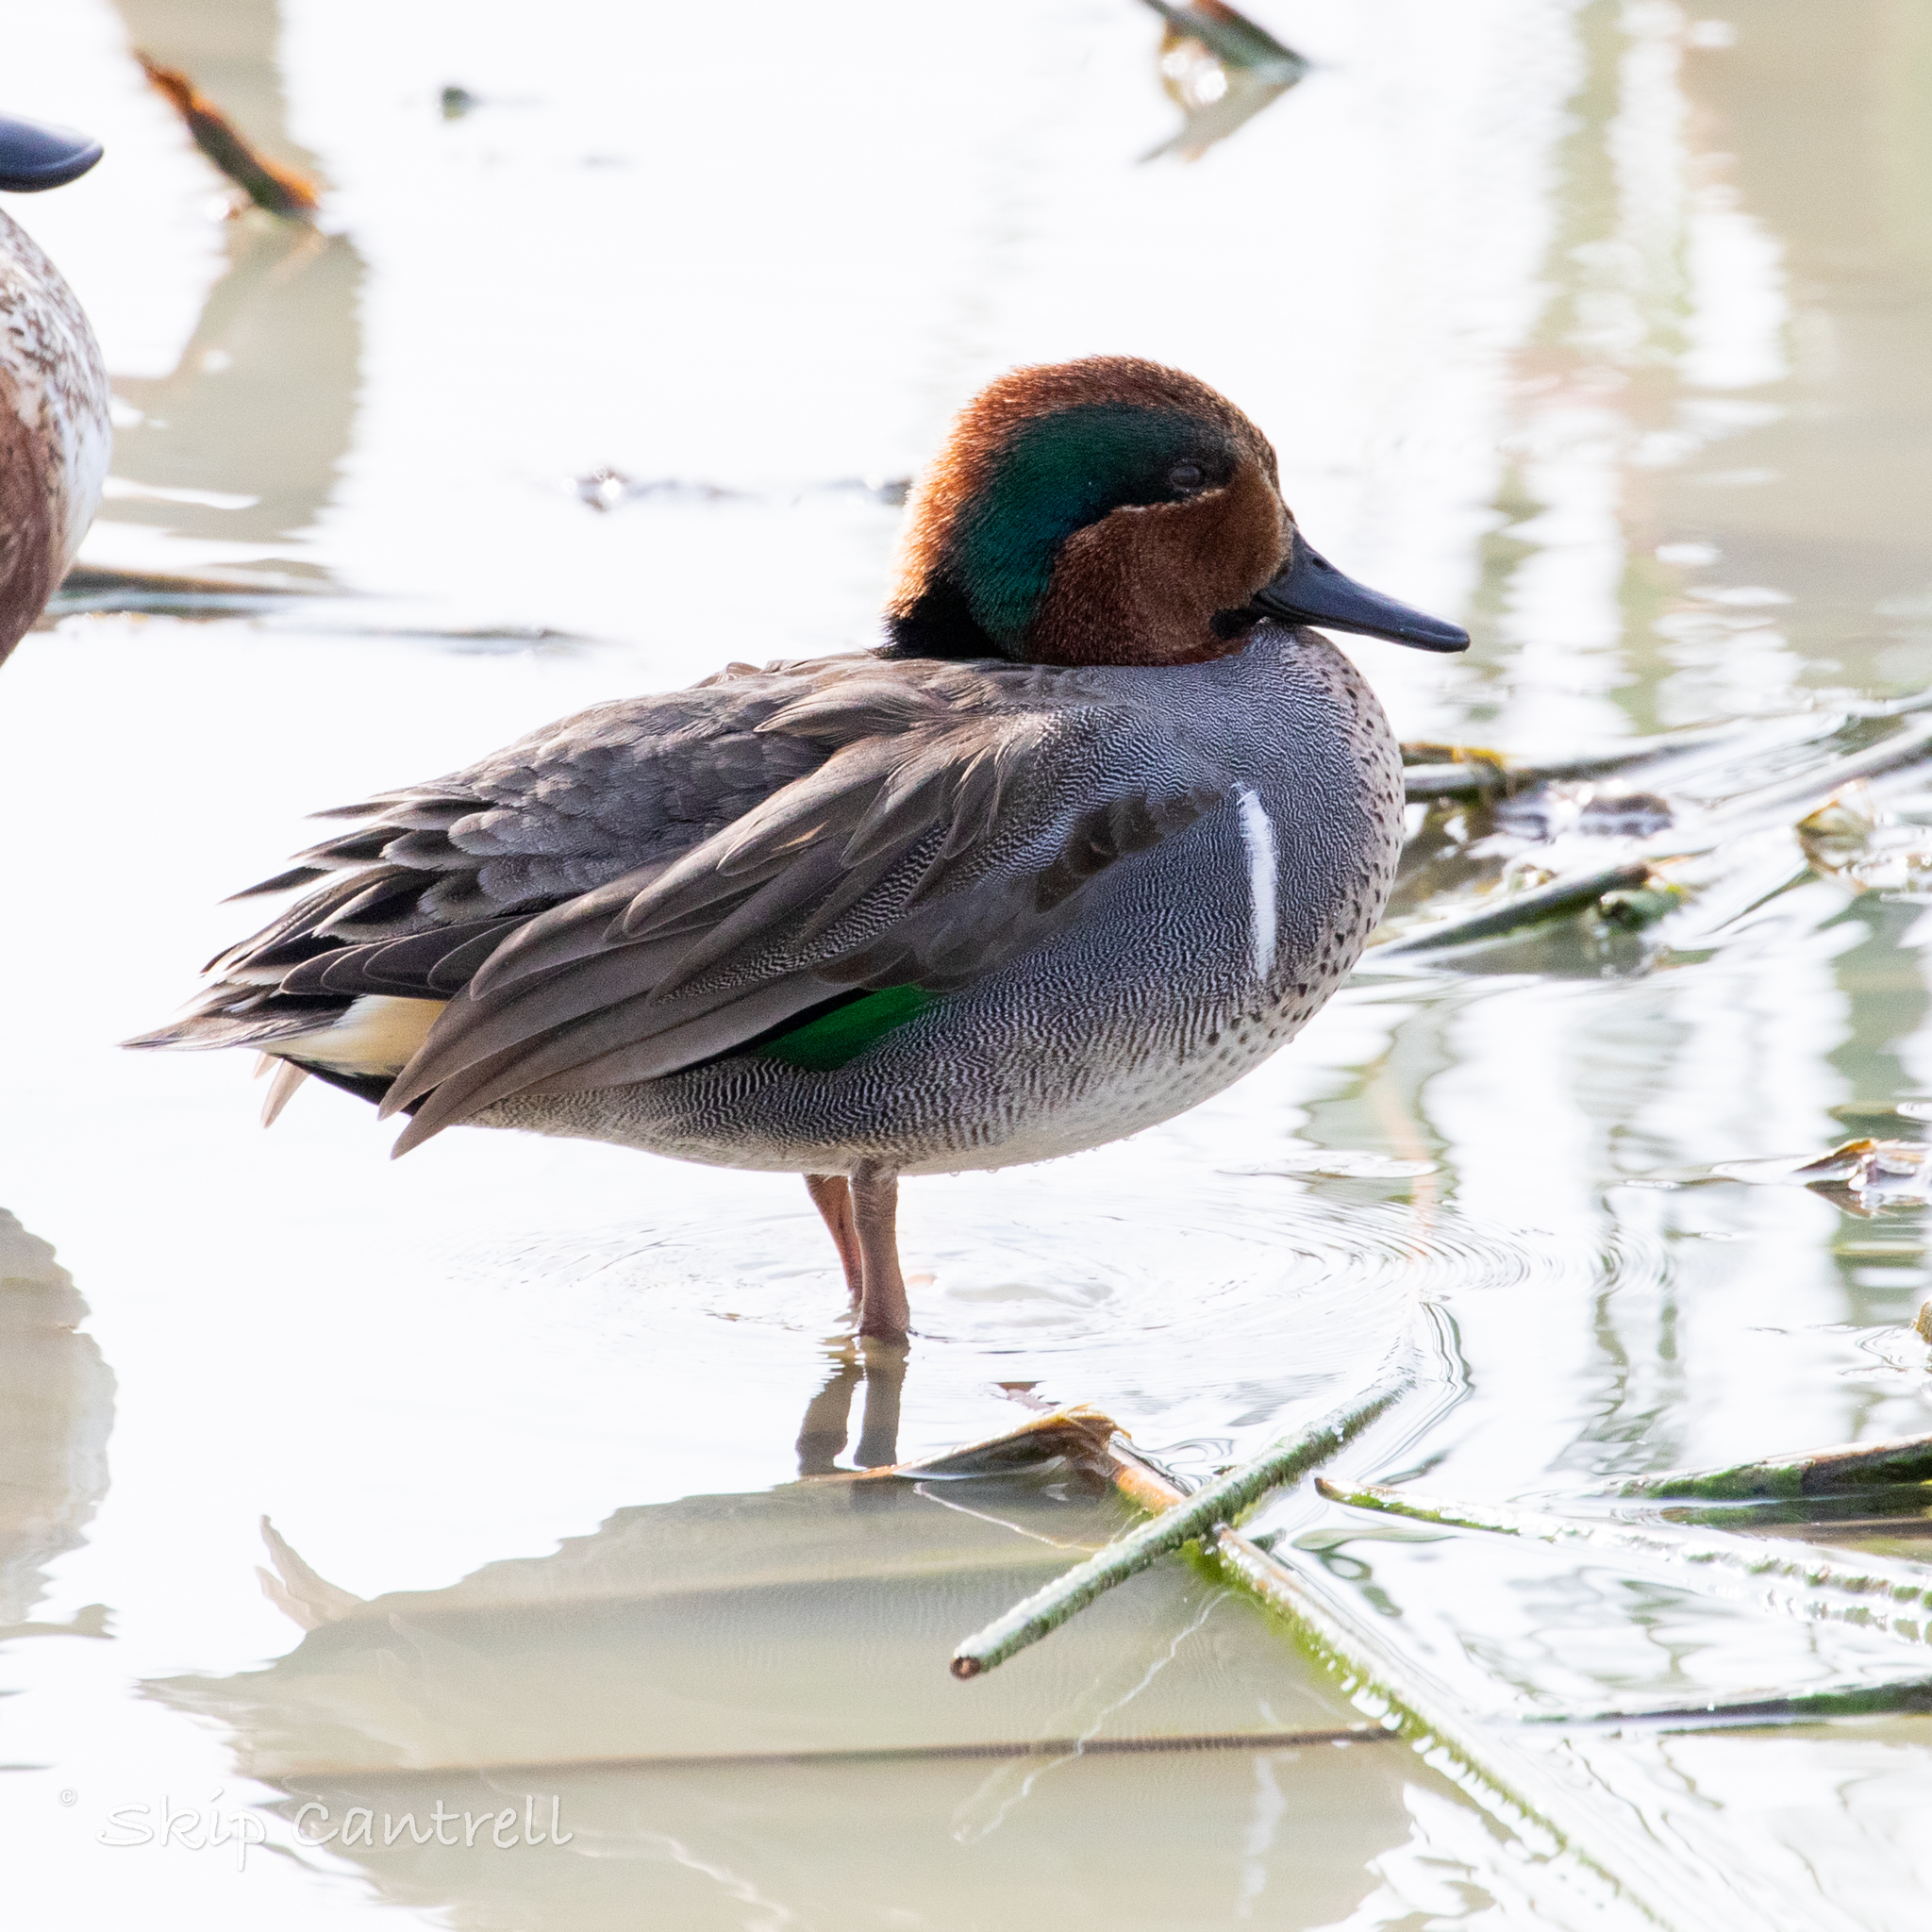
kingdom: Animalia
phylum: Chordata
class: Aves
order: Anseriformes
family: Anatidae
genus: Anas
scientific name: Anas crecca
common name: Eurasian teal
